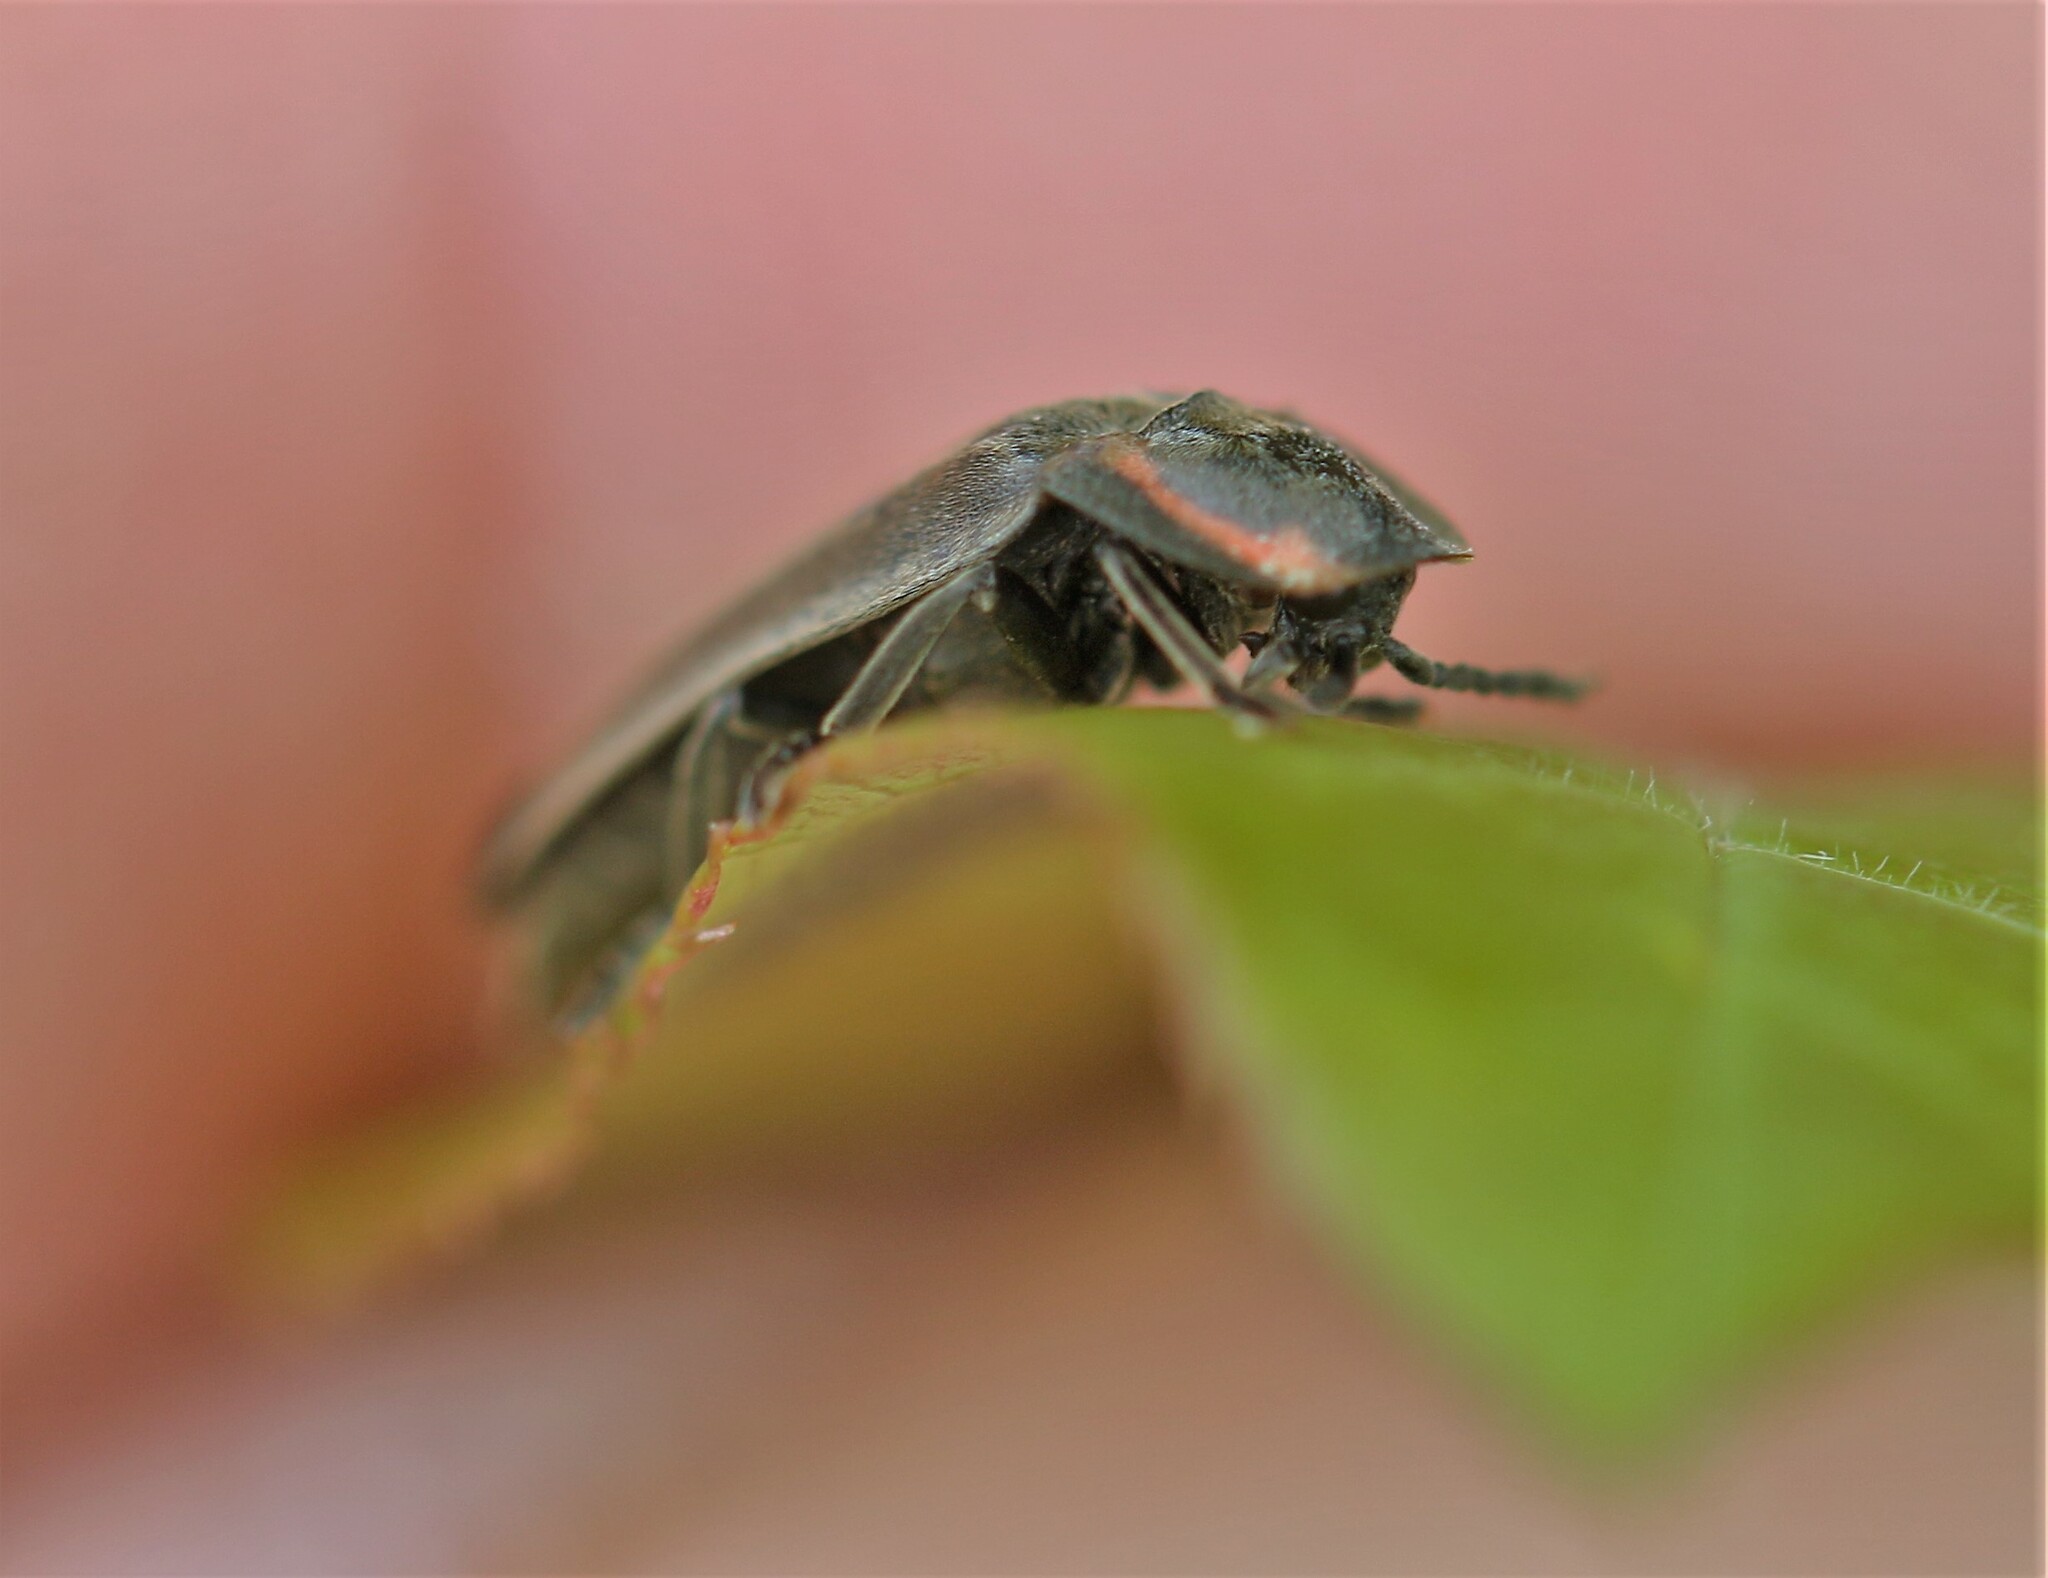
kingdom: Animalia
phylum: Arthropoda
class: Insecta
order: Coleoptera
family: Lampyridae
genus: Photinus
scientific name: Photinus corrusca
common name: Winter firefly
